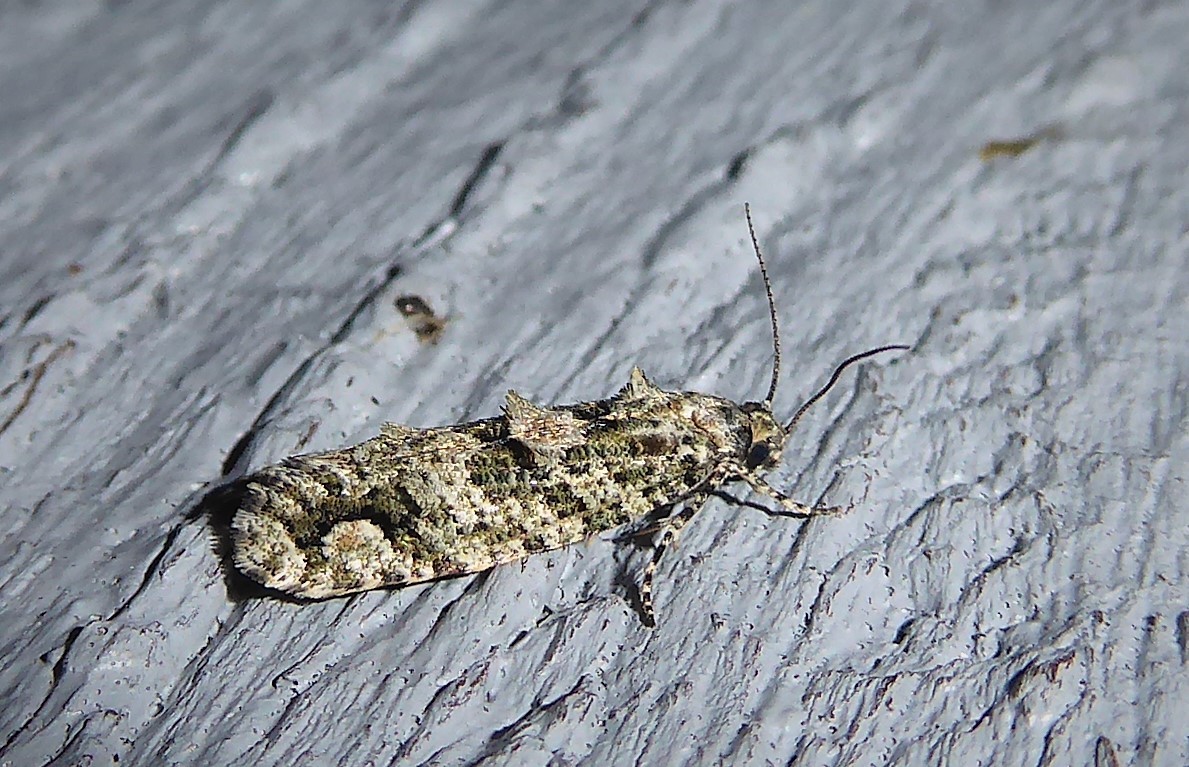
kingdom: Animalia
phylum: Arthropoda
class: Insecta
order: Lepidoptera
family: Tineidae
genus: Lysiphragma
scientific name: Lysiphragma howesii
